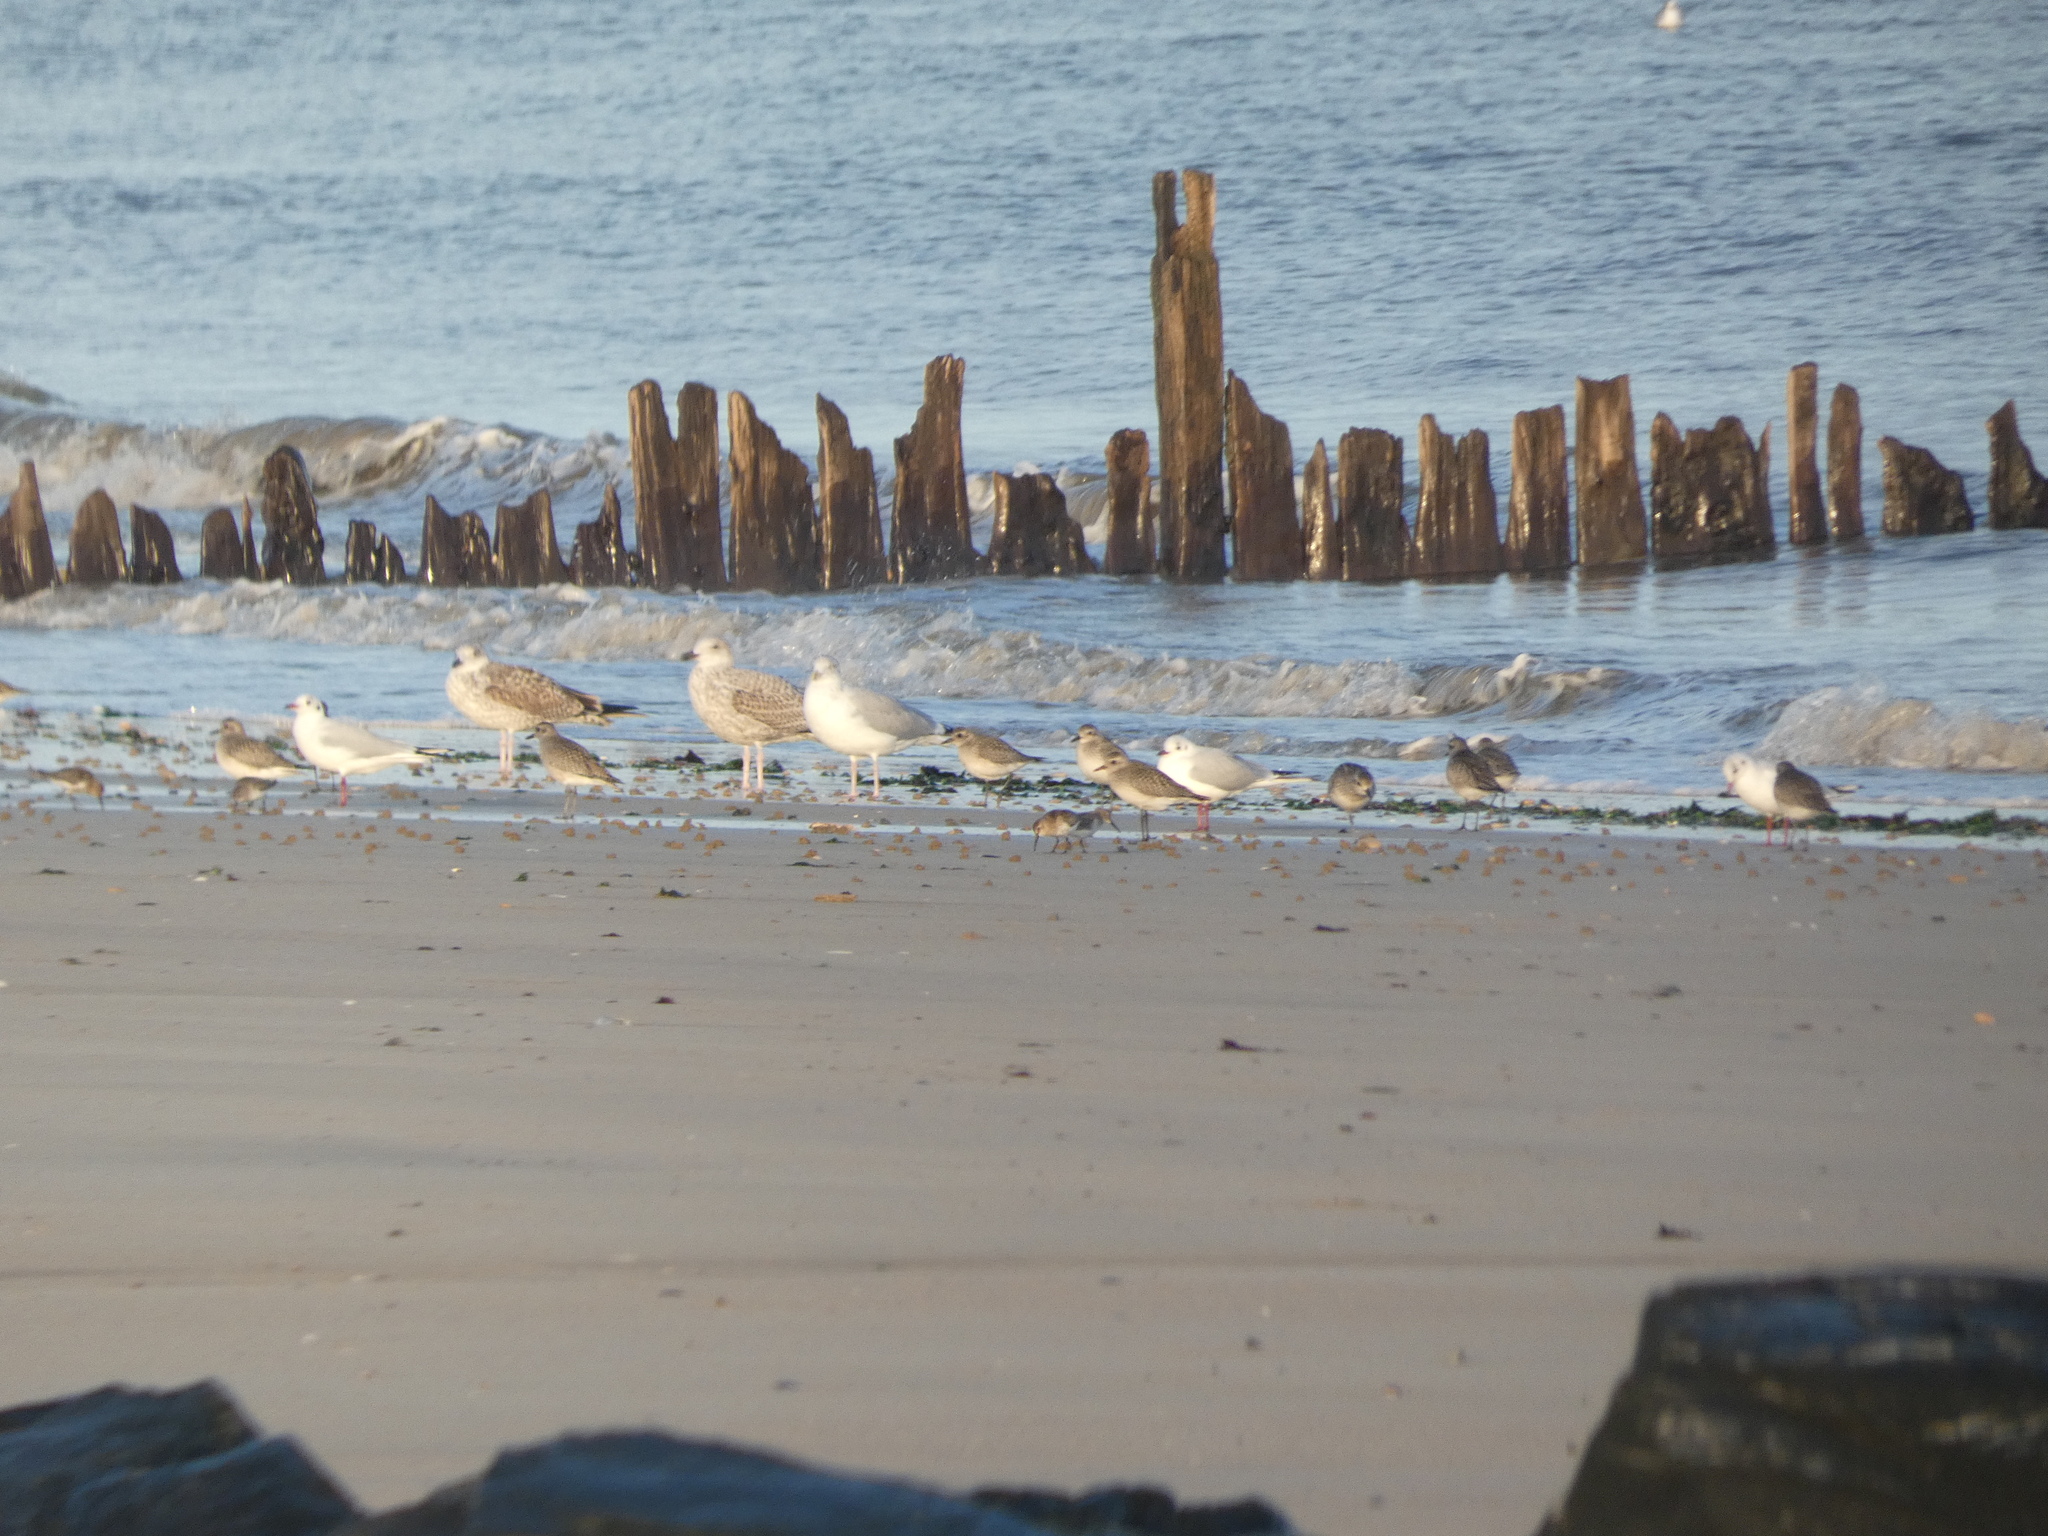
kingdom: Animalia
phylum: Chordata
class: Aves
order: Charadriiformes
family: Laridae
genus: Chroicocephalus
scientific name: Chroicocephalus ridibundus
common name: Black-headed gull
